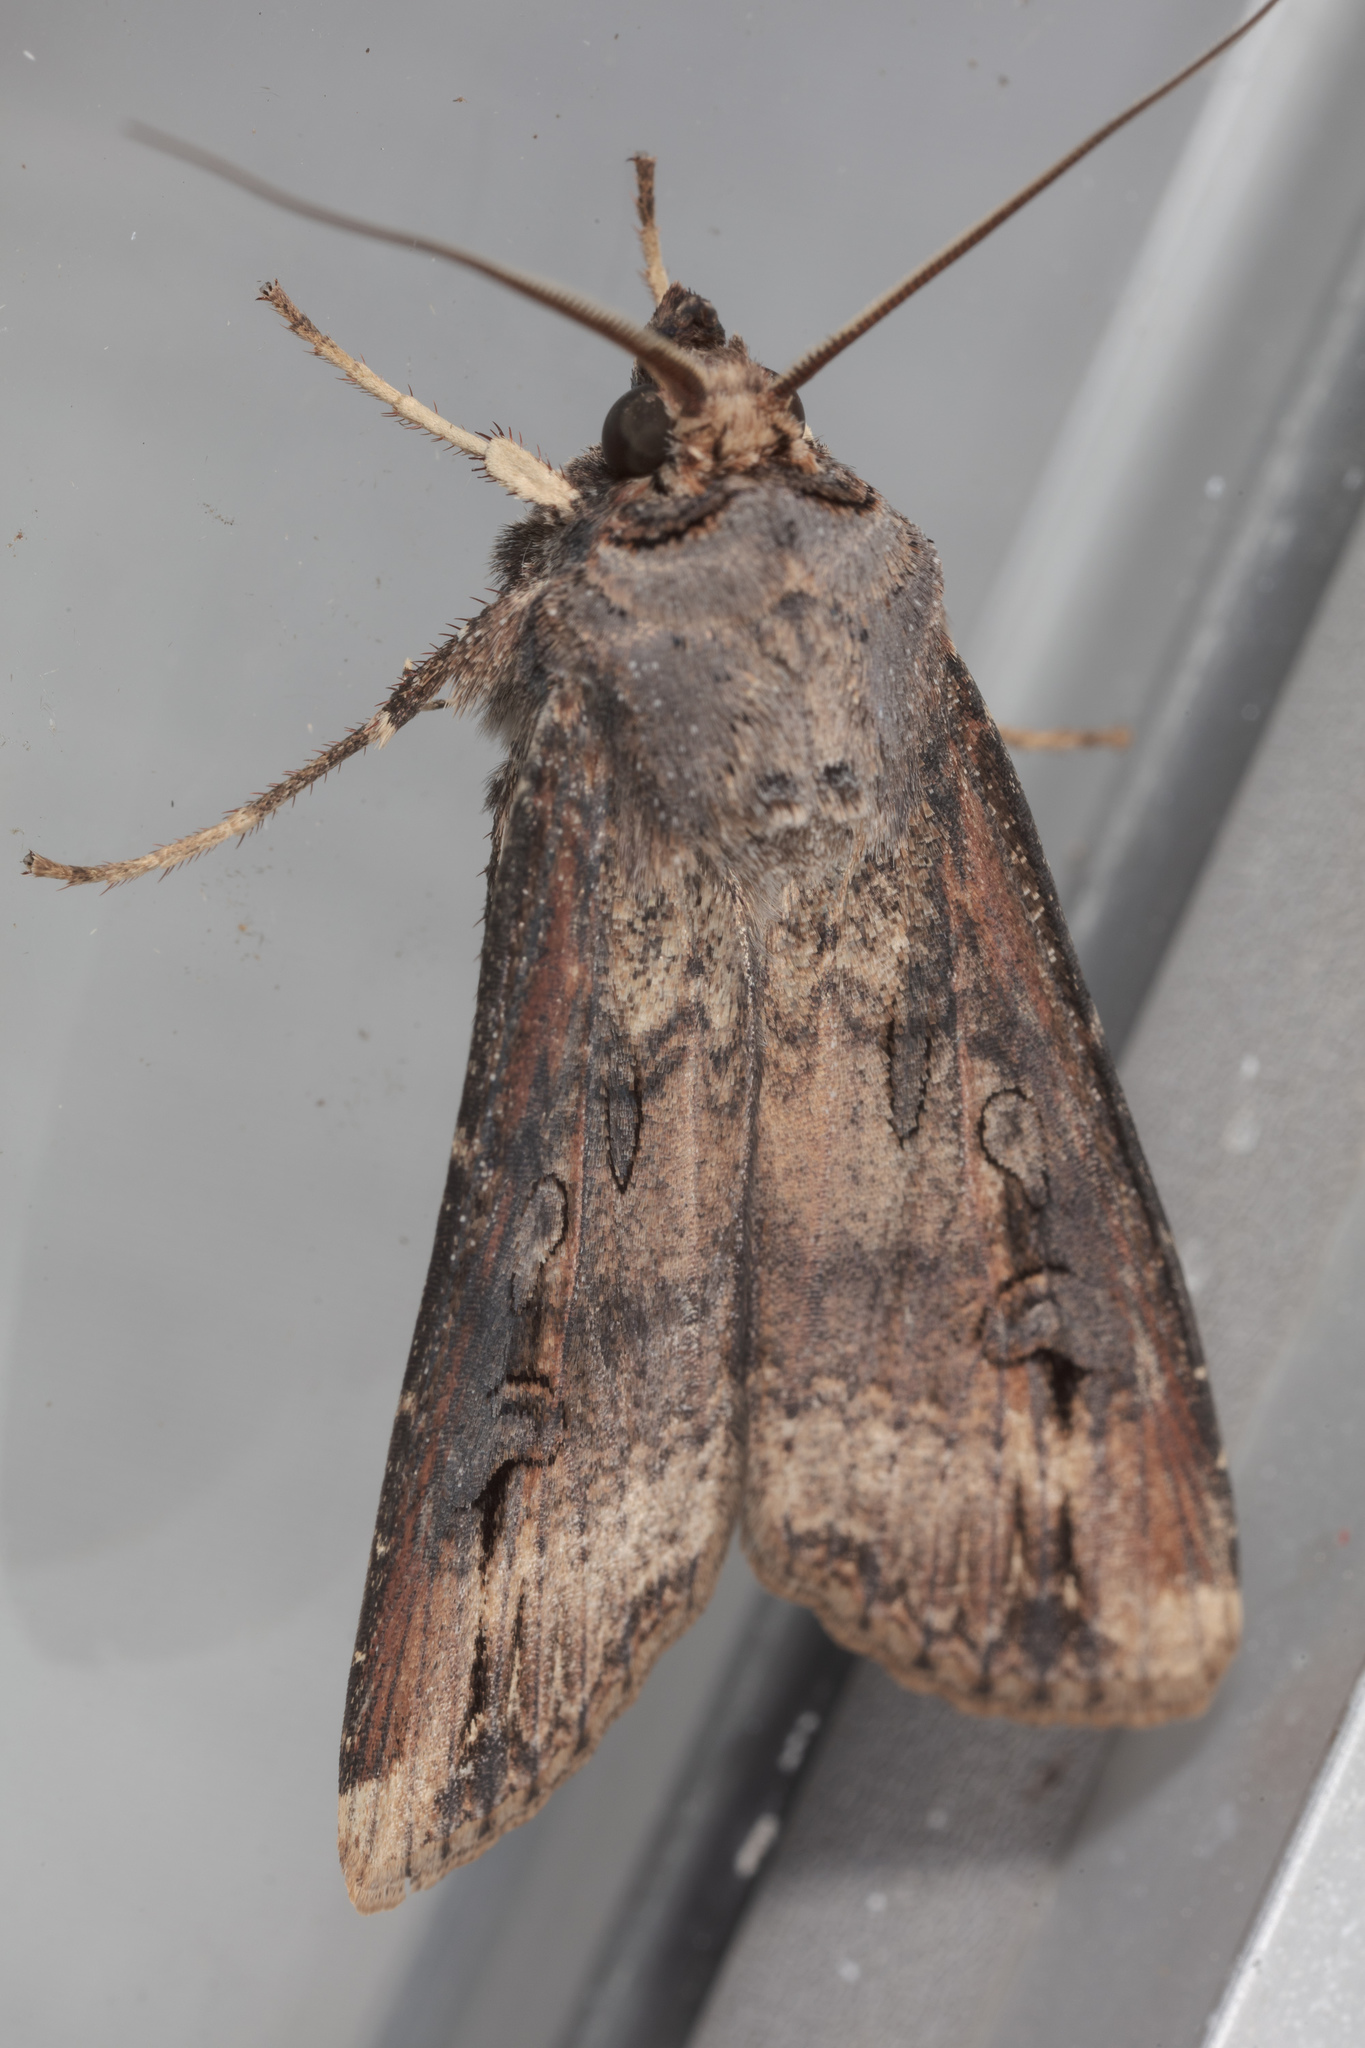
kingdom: Animalia
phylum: Arthropoda
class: Insecta
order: Lepidoptera
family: Noctuidae
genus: Agrotis
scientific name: Agrotis ipsilon
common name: Dark sword-grass
